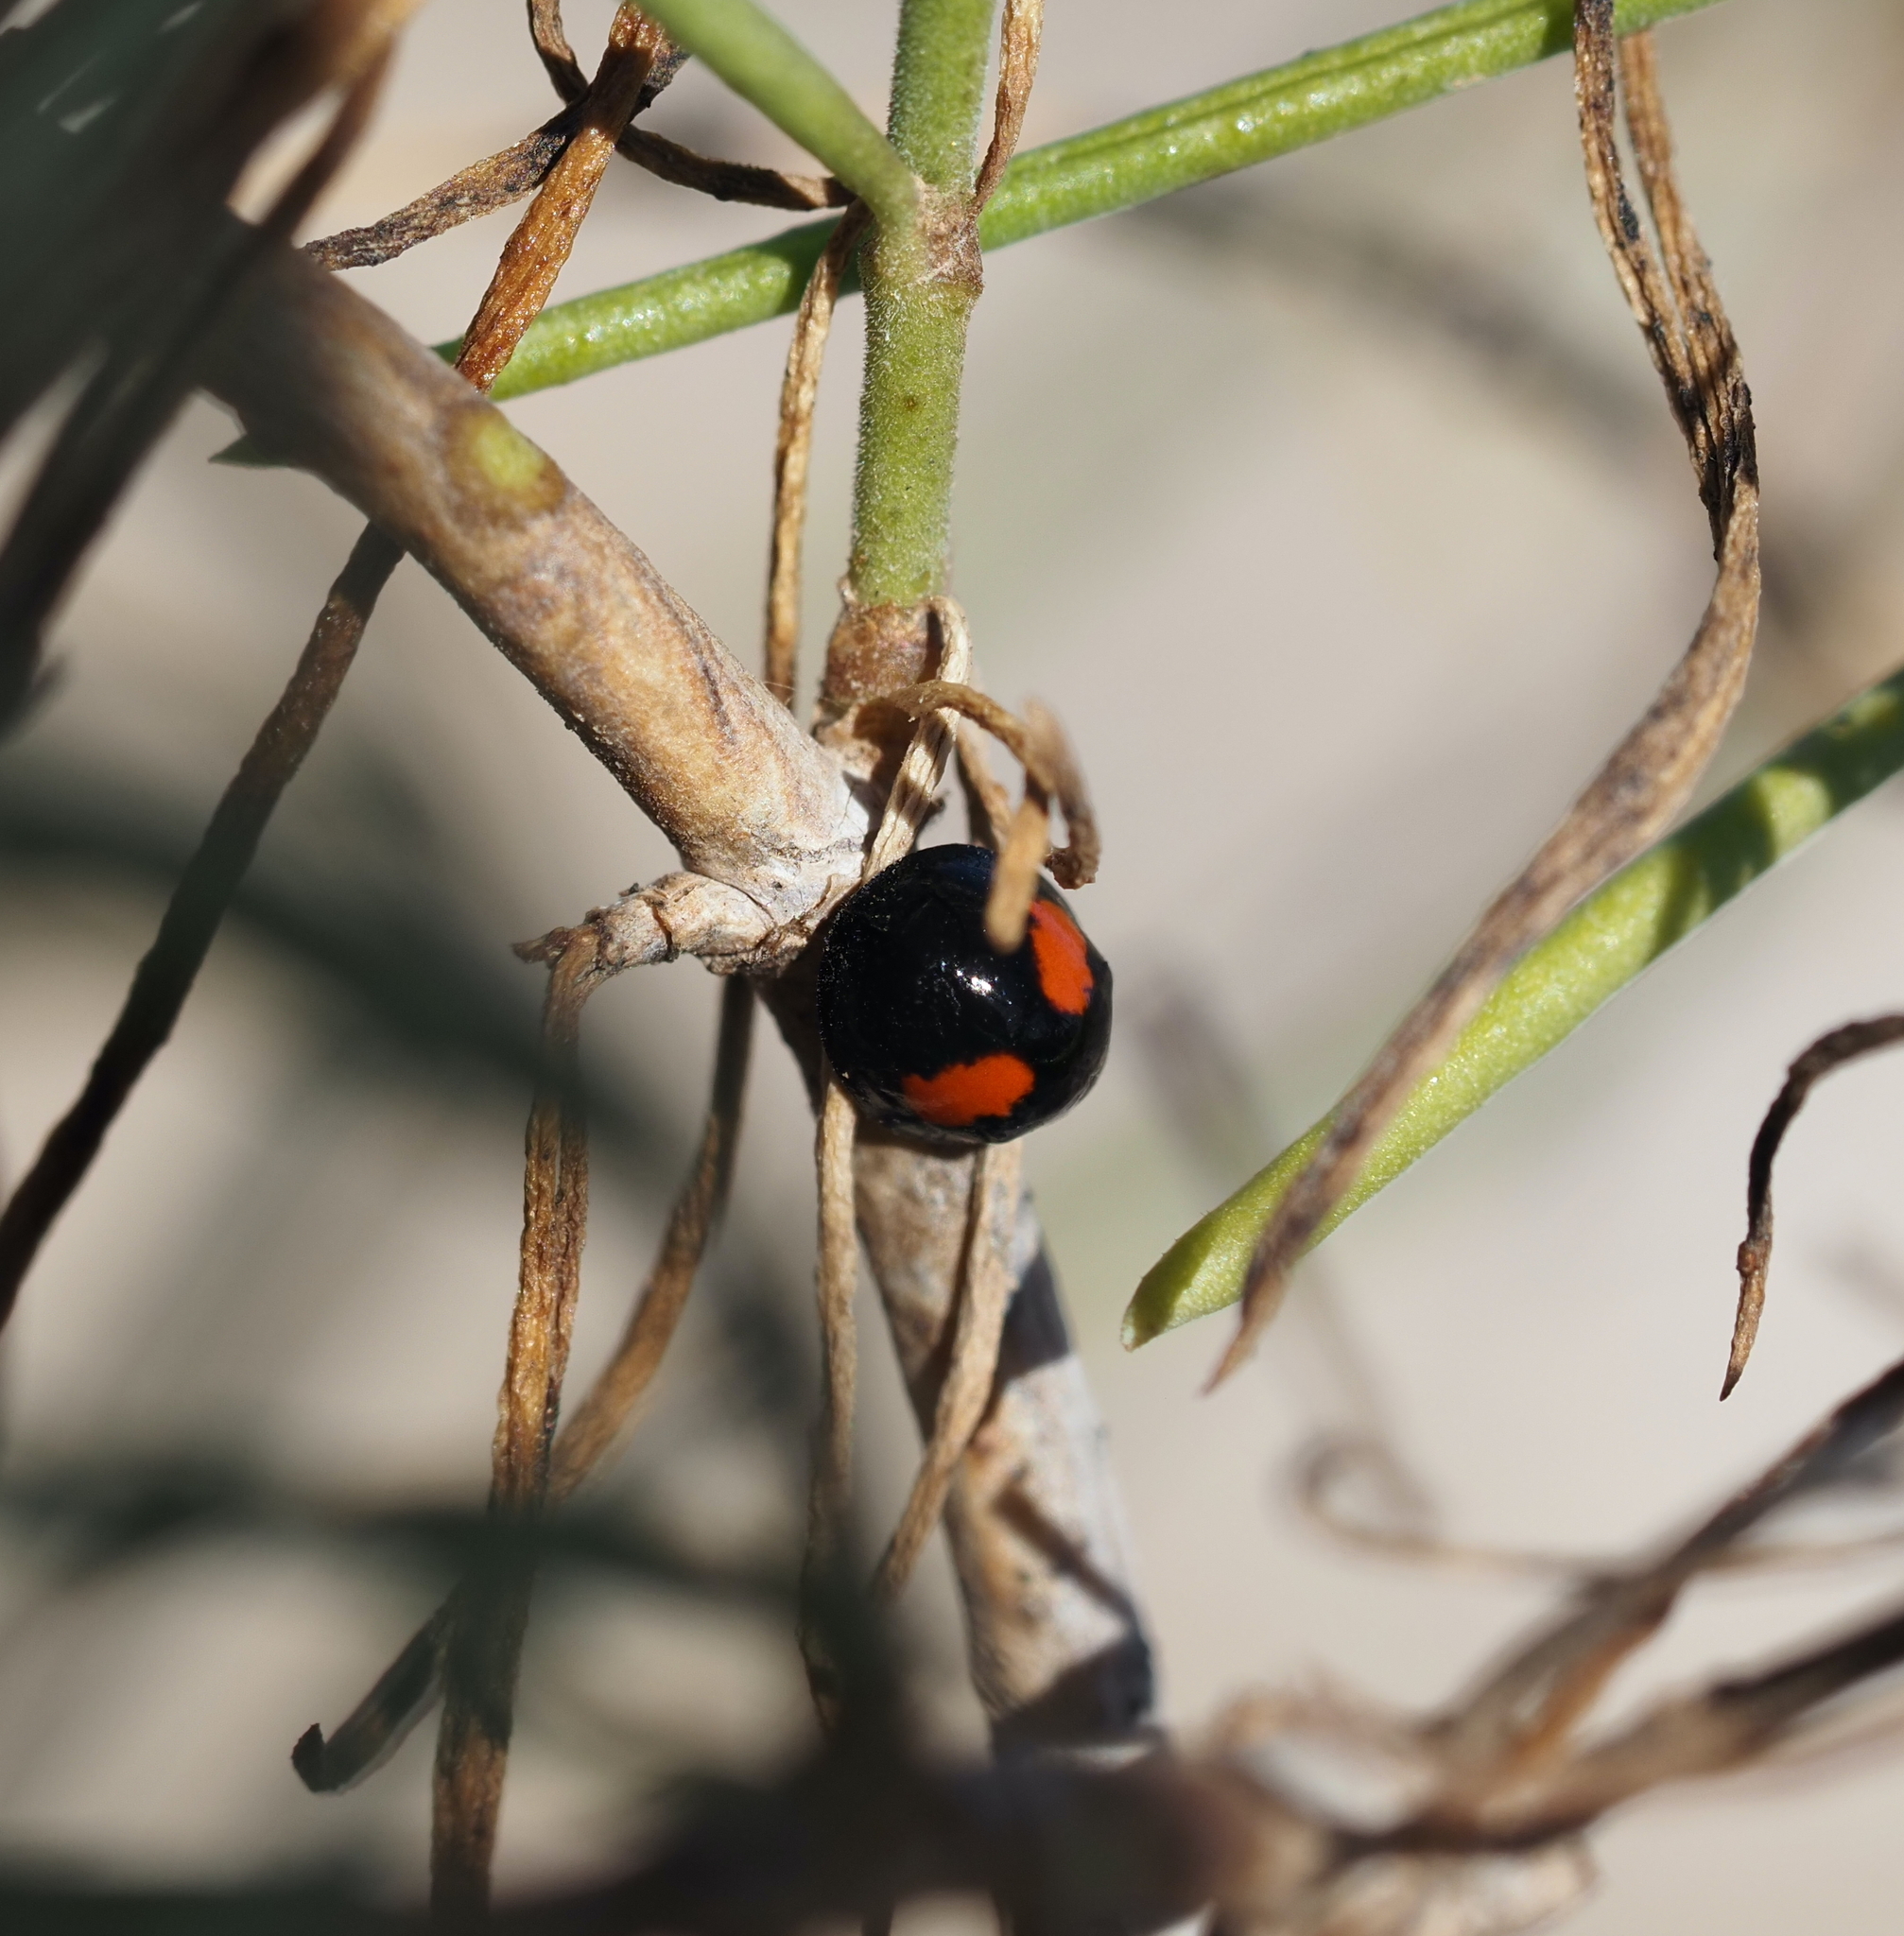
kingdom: Animalia
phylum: Arthropoda
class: Insecta
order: Coleoptera
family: Coccinellidae
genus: Chilocorus
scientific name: Chilocorus canariensis
